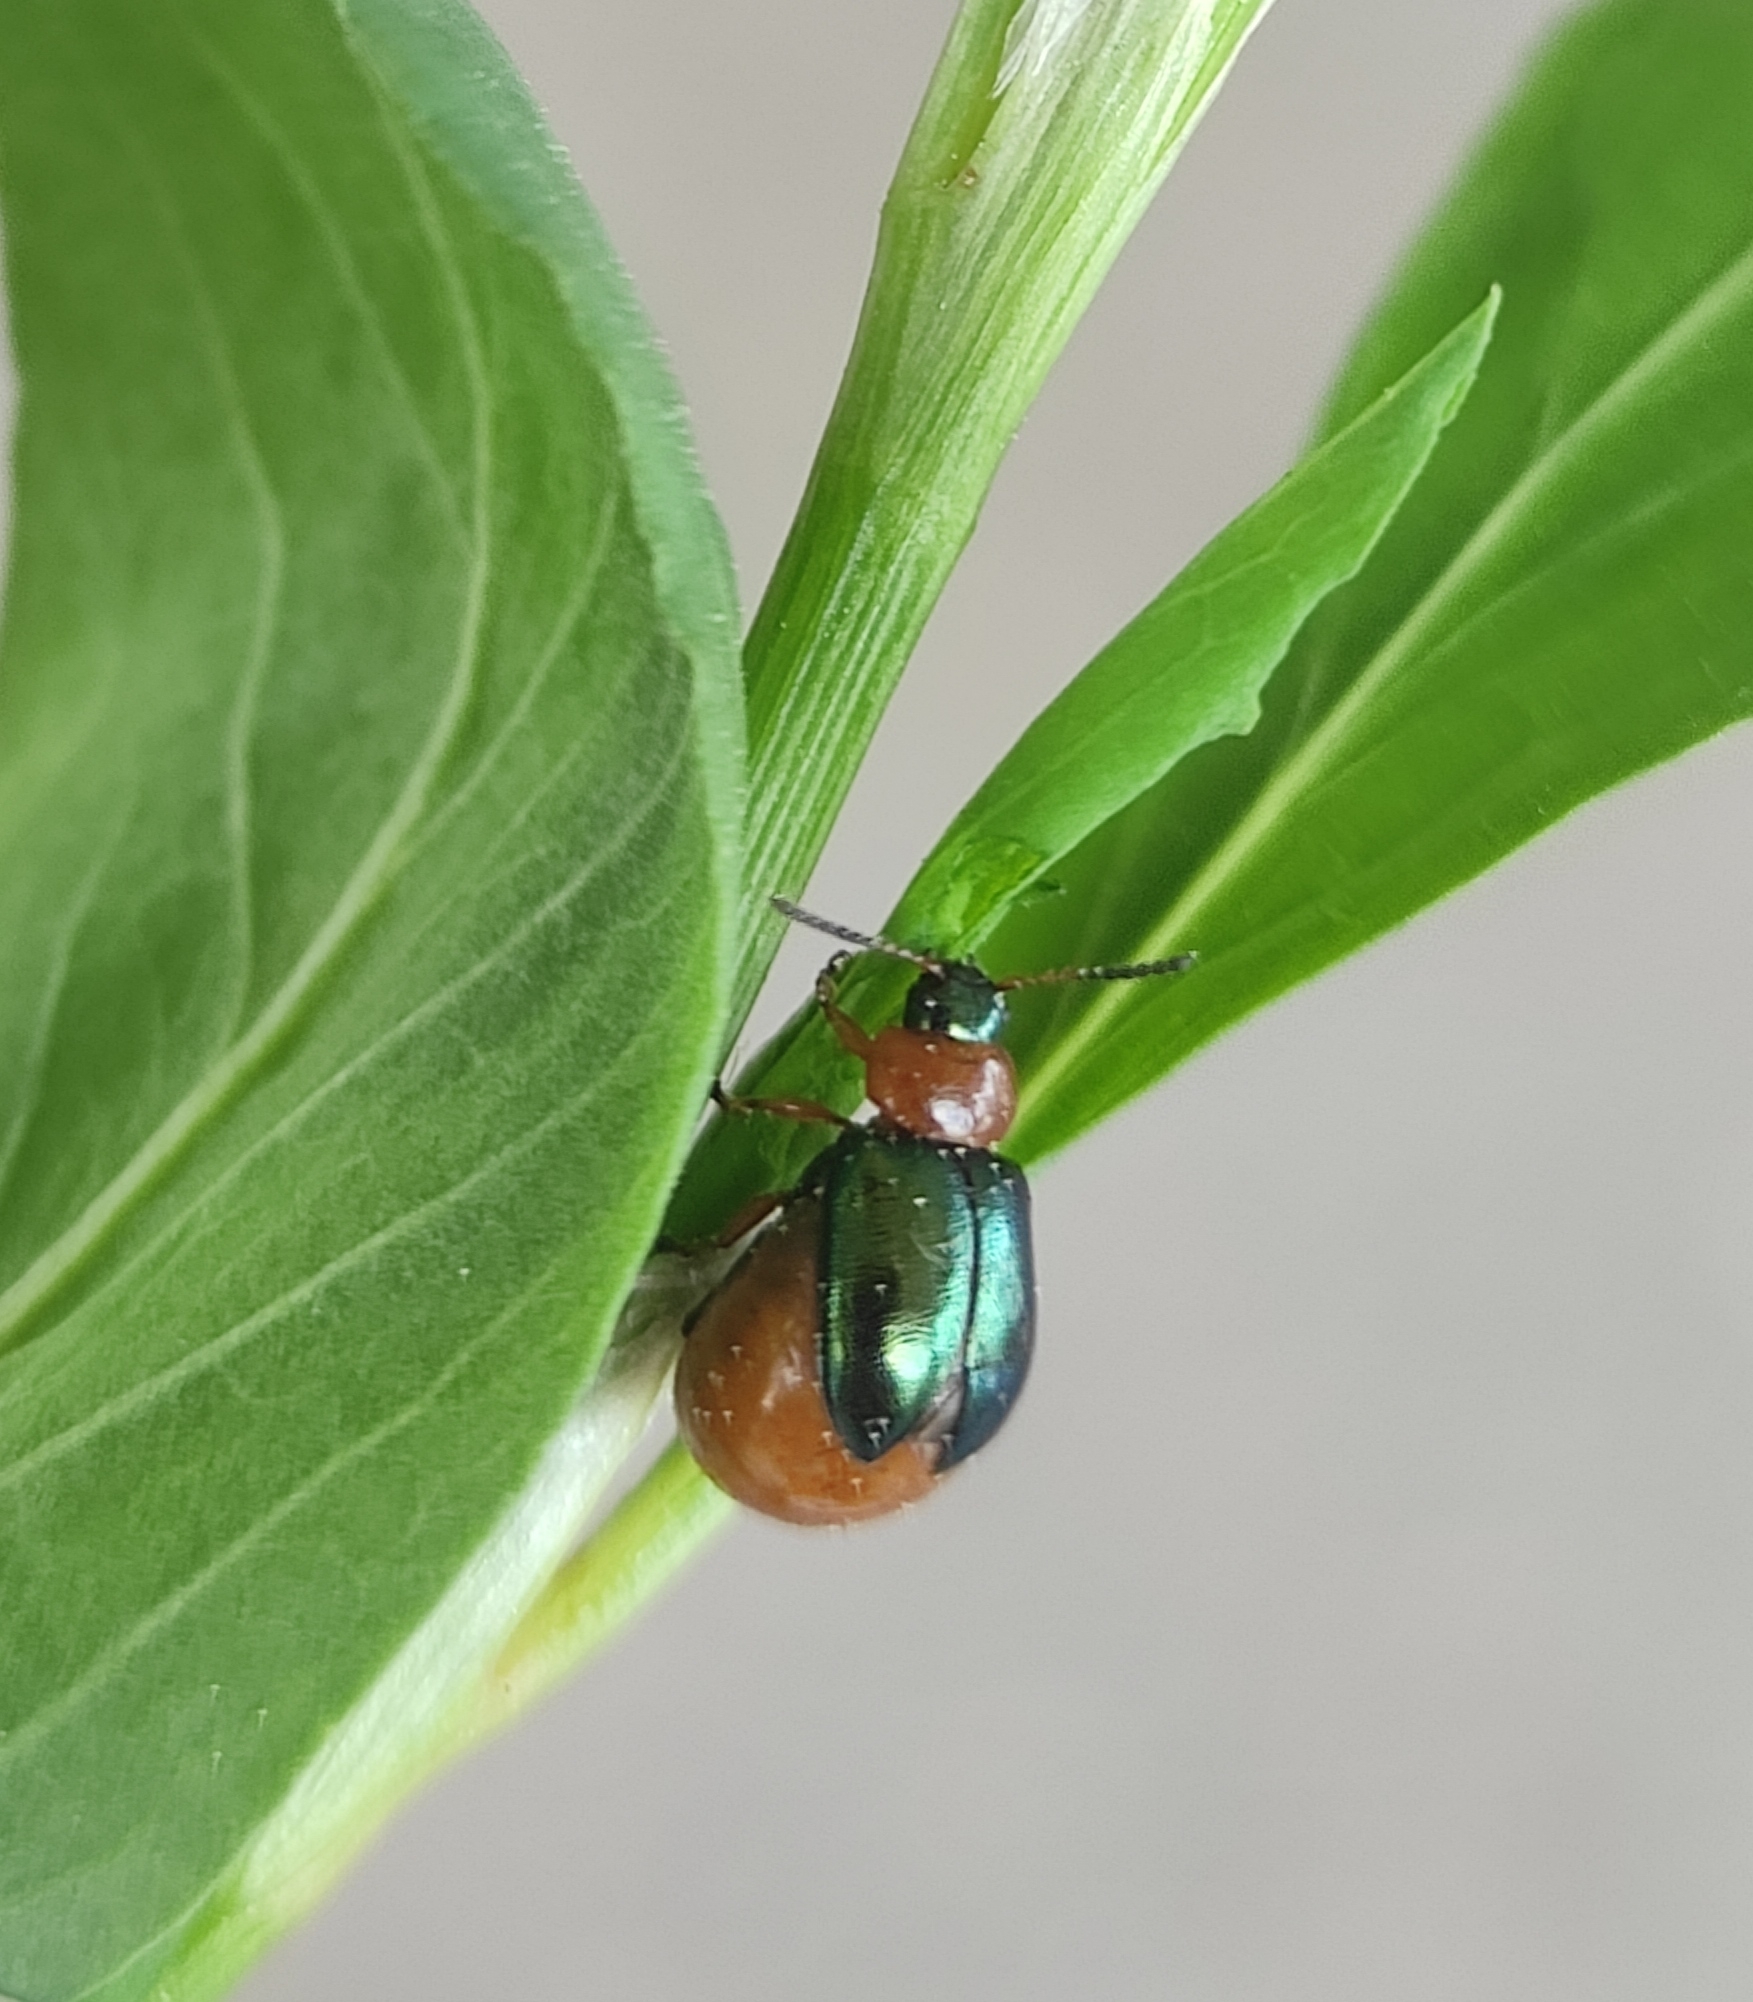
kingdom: Animalia
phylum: Arthropoda
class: Insecta
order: Coleoptera
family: Chrysomelidae
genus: Gastrophysa
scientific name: Gastrophysa polygoni
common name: Knotweed leaf beetle
